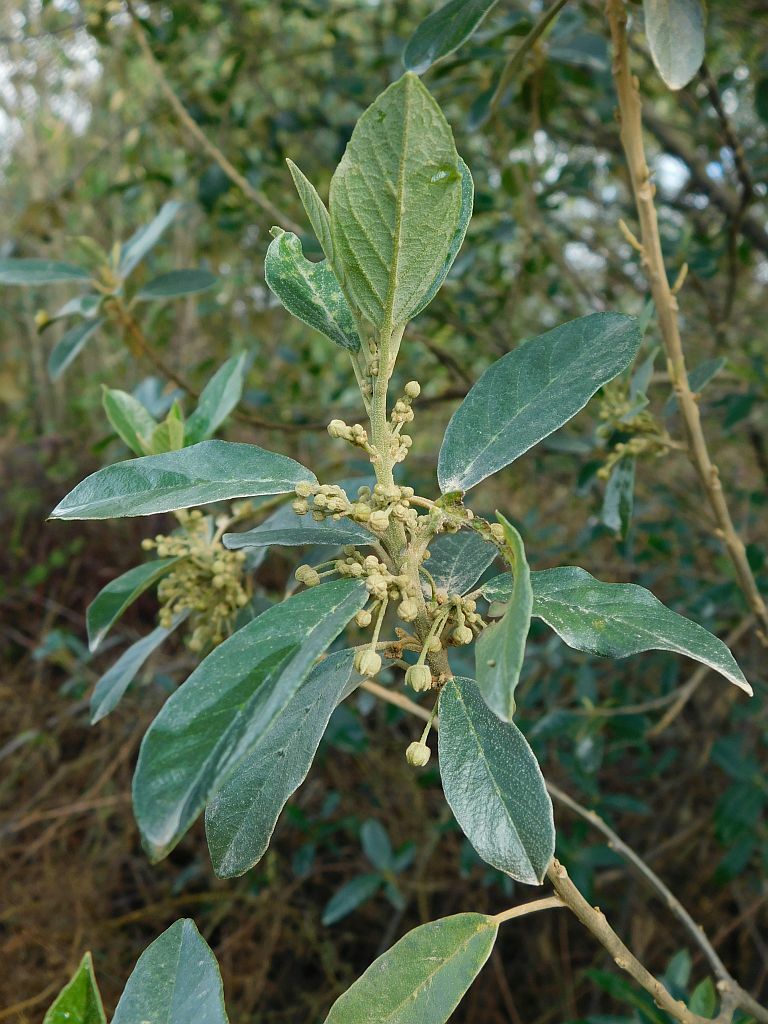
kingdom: Plantae
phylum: Tracheophyta
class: Magnoliopsida
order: Malpighiales
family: Achariaceae
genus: Kiggelaria
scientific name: Kiggelaria africana
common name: Wild peach
